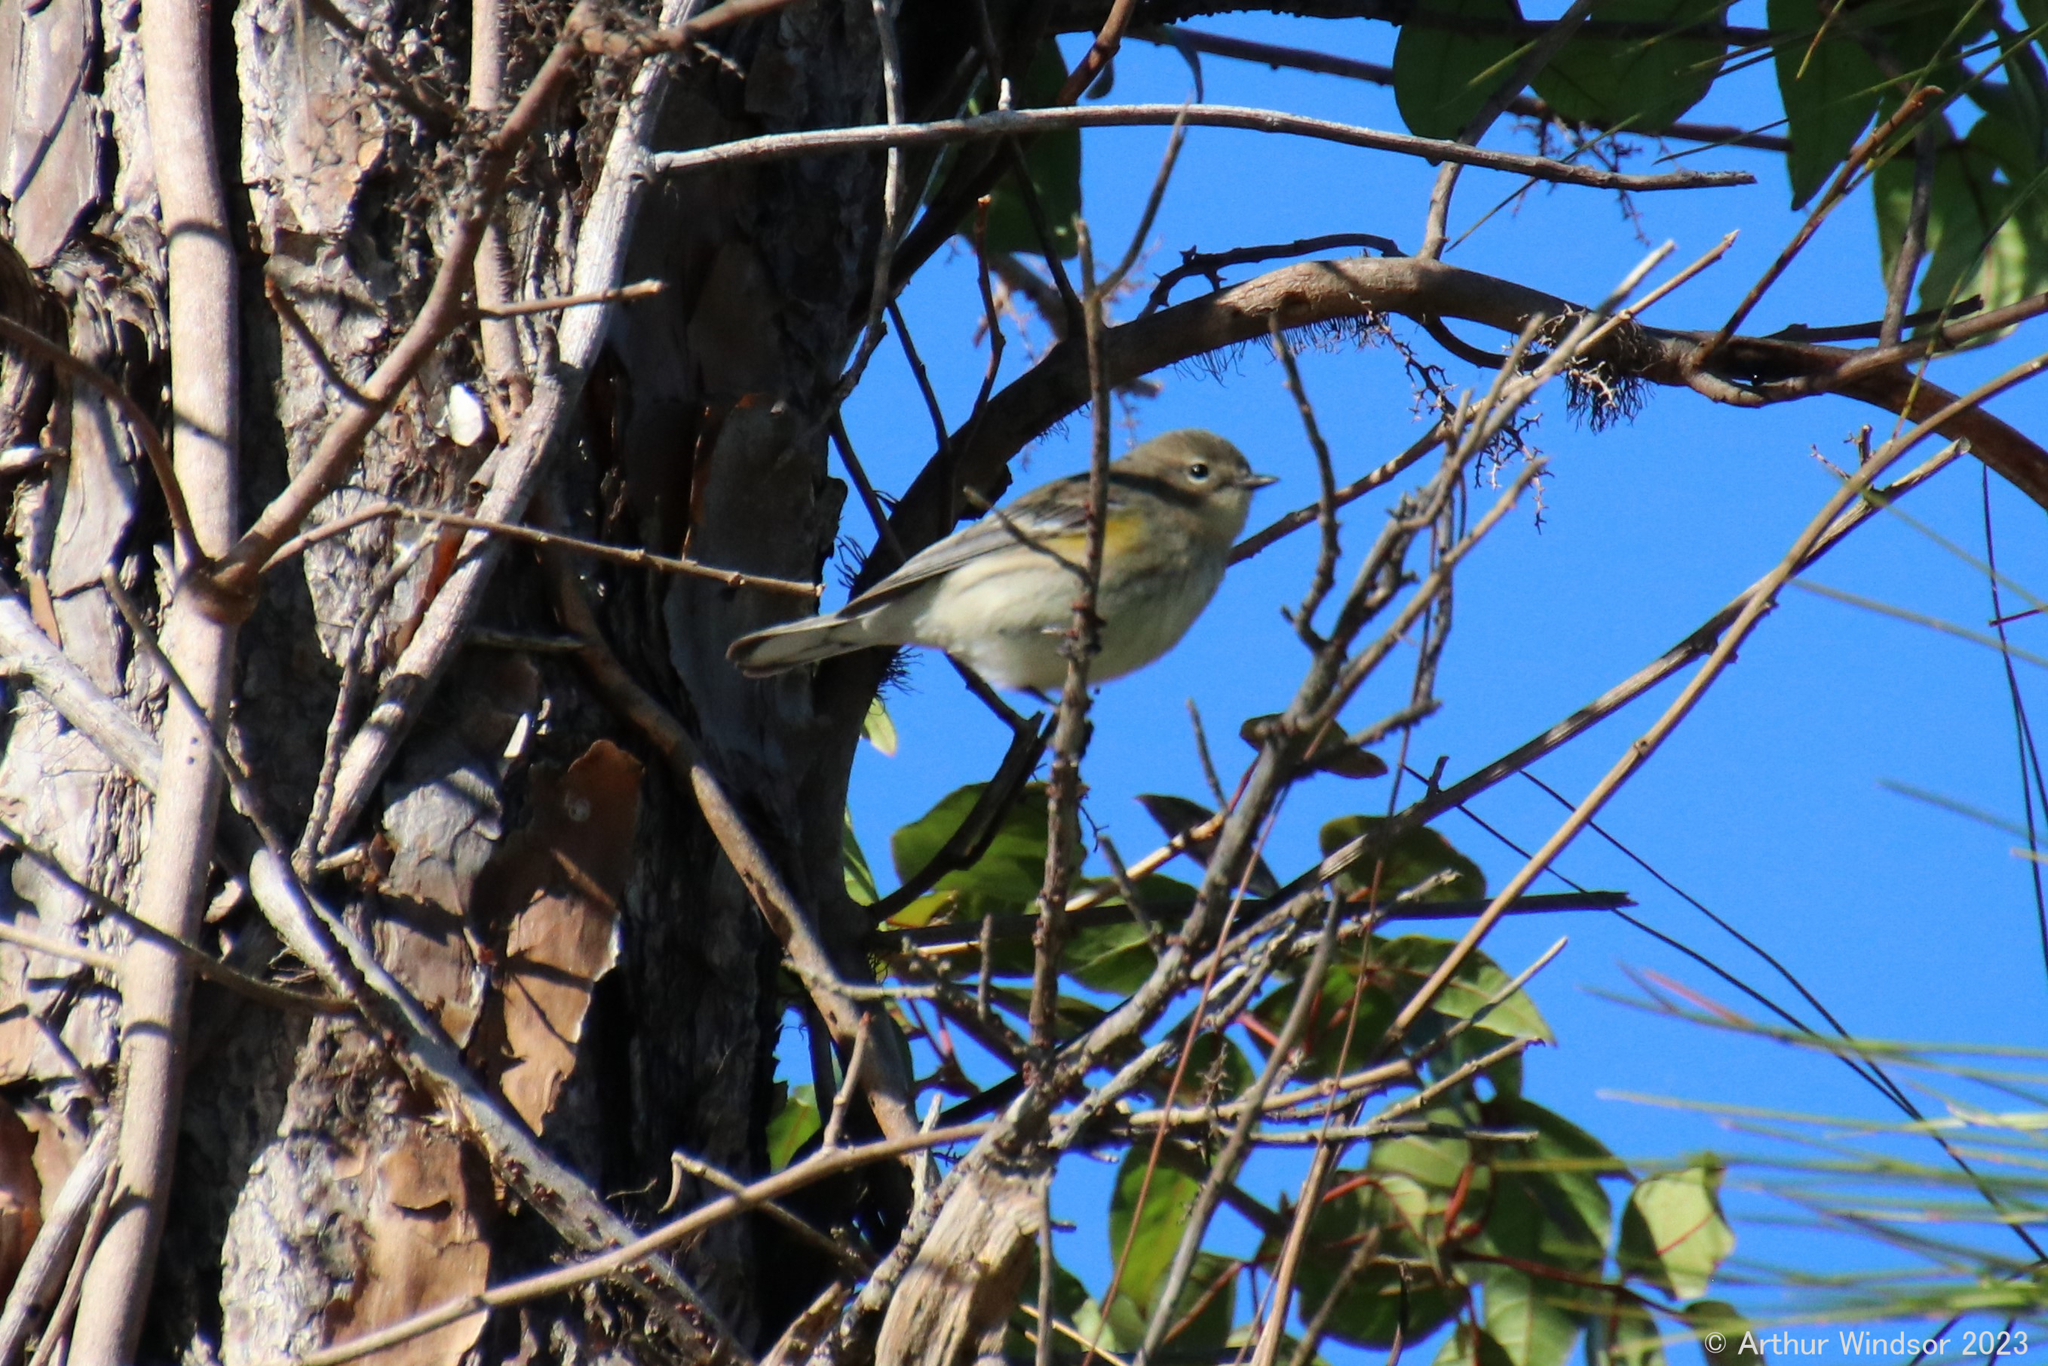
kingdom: Animalia
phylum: Chordata
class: Aves
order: Passeriformes
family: Parulidae
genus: Setophaga
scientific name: Setophaga coronata
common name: Myrtle warbler
